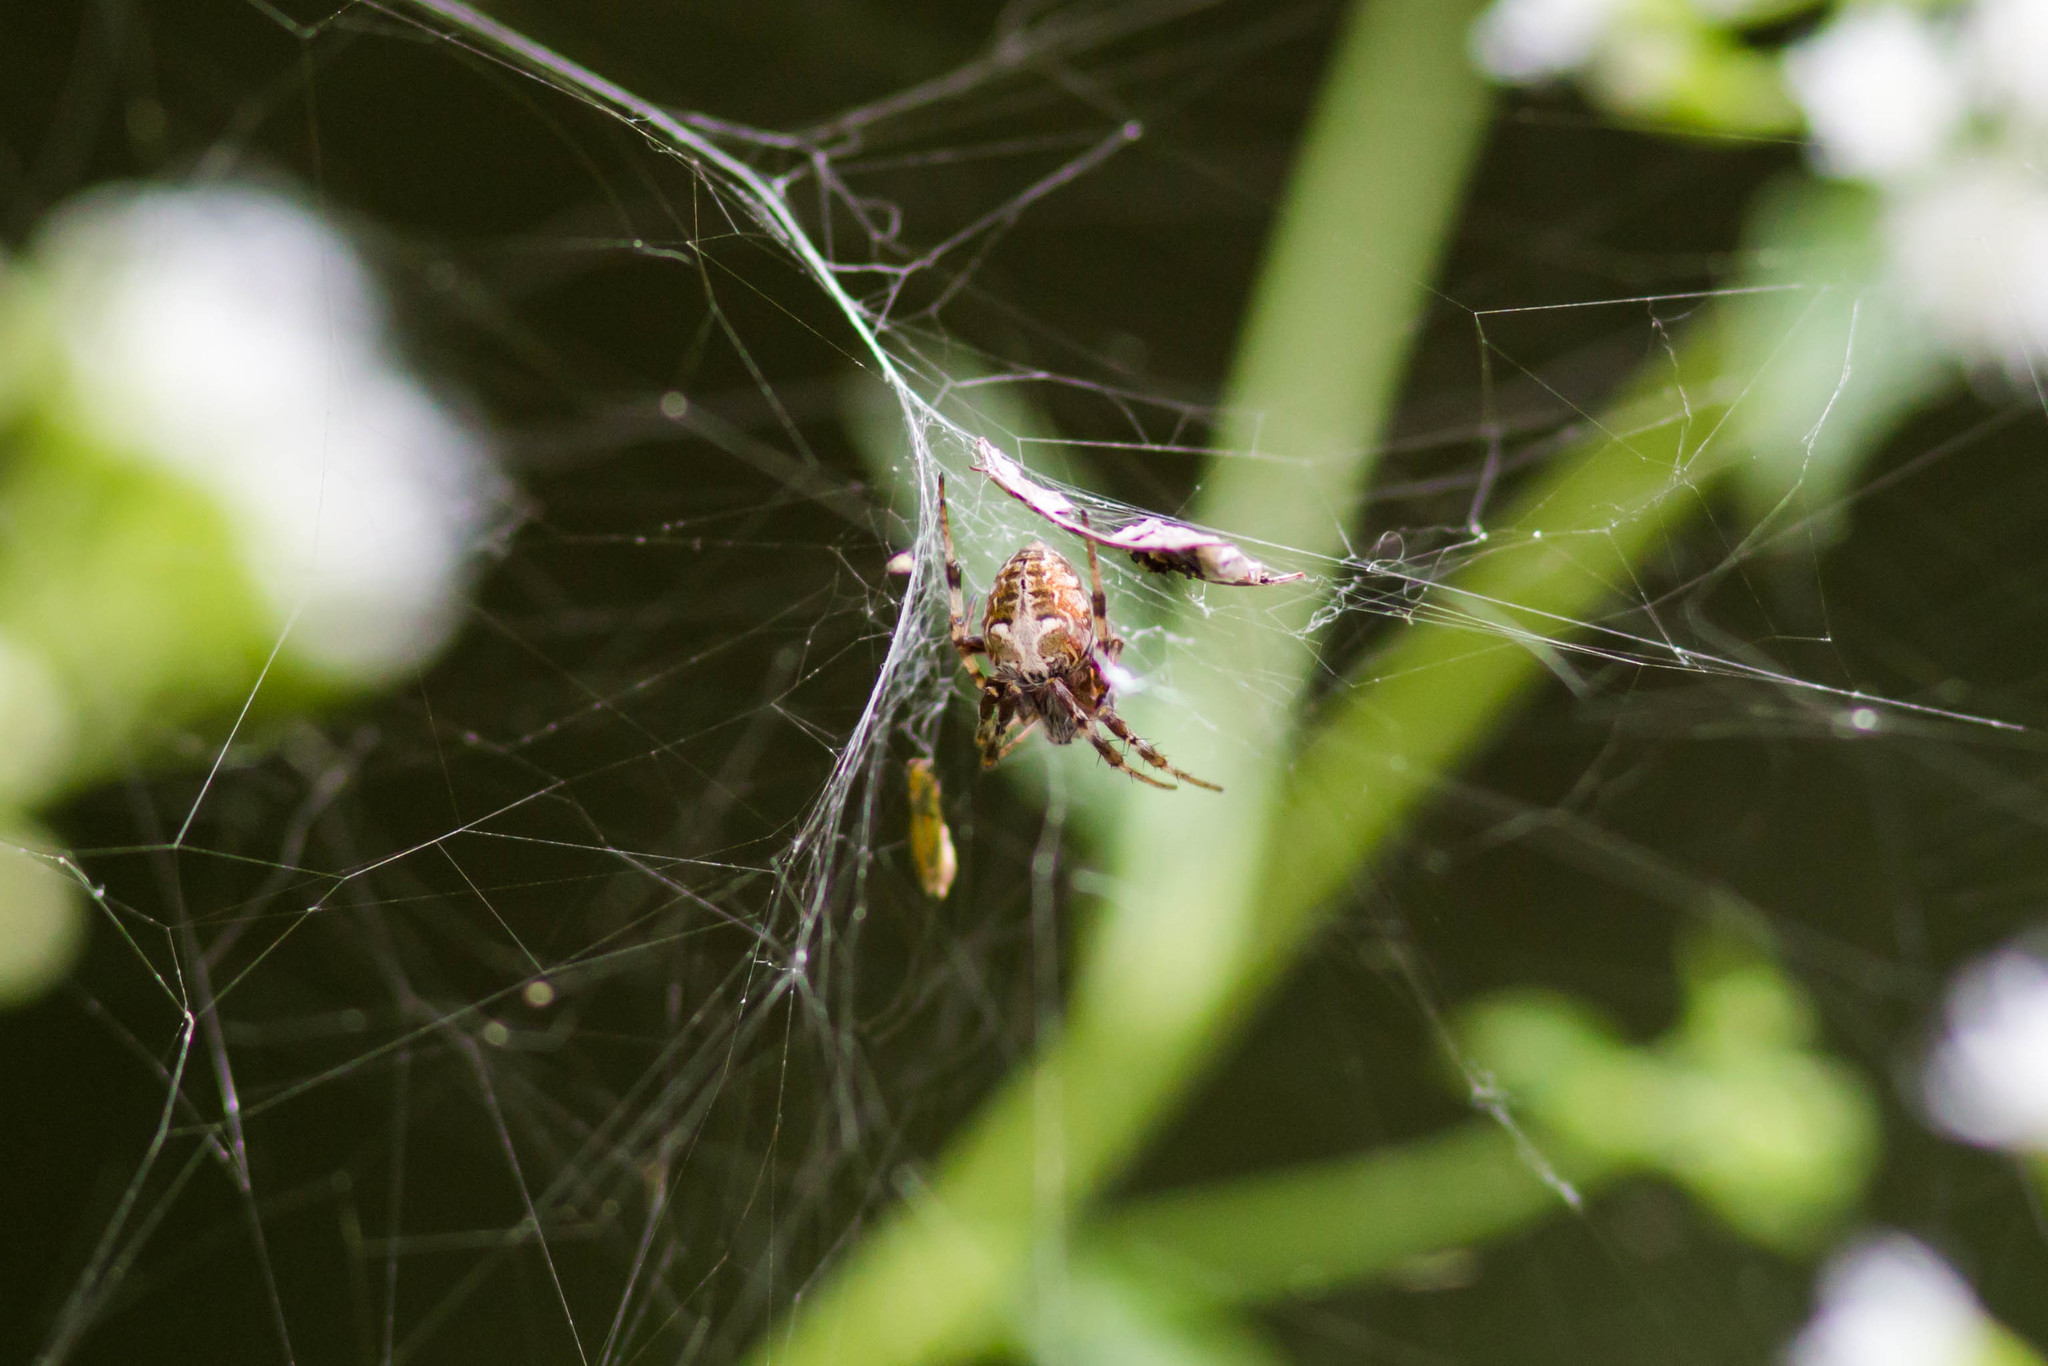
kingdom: Animalia
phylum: Arthropoda
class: Arachnida
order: Araneae
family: Araneidae
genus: Metepeira
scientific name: Metepeira labyrinthea
